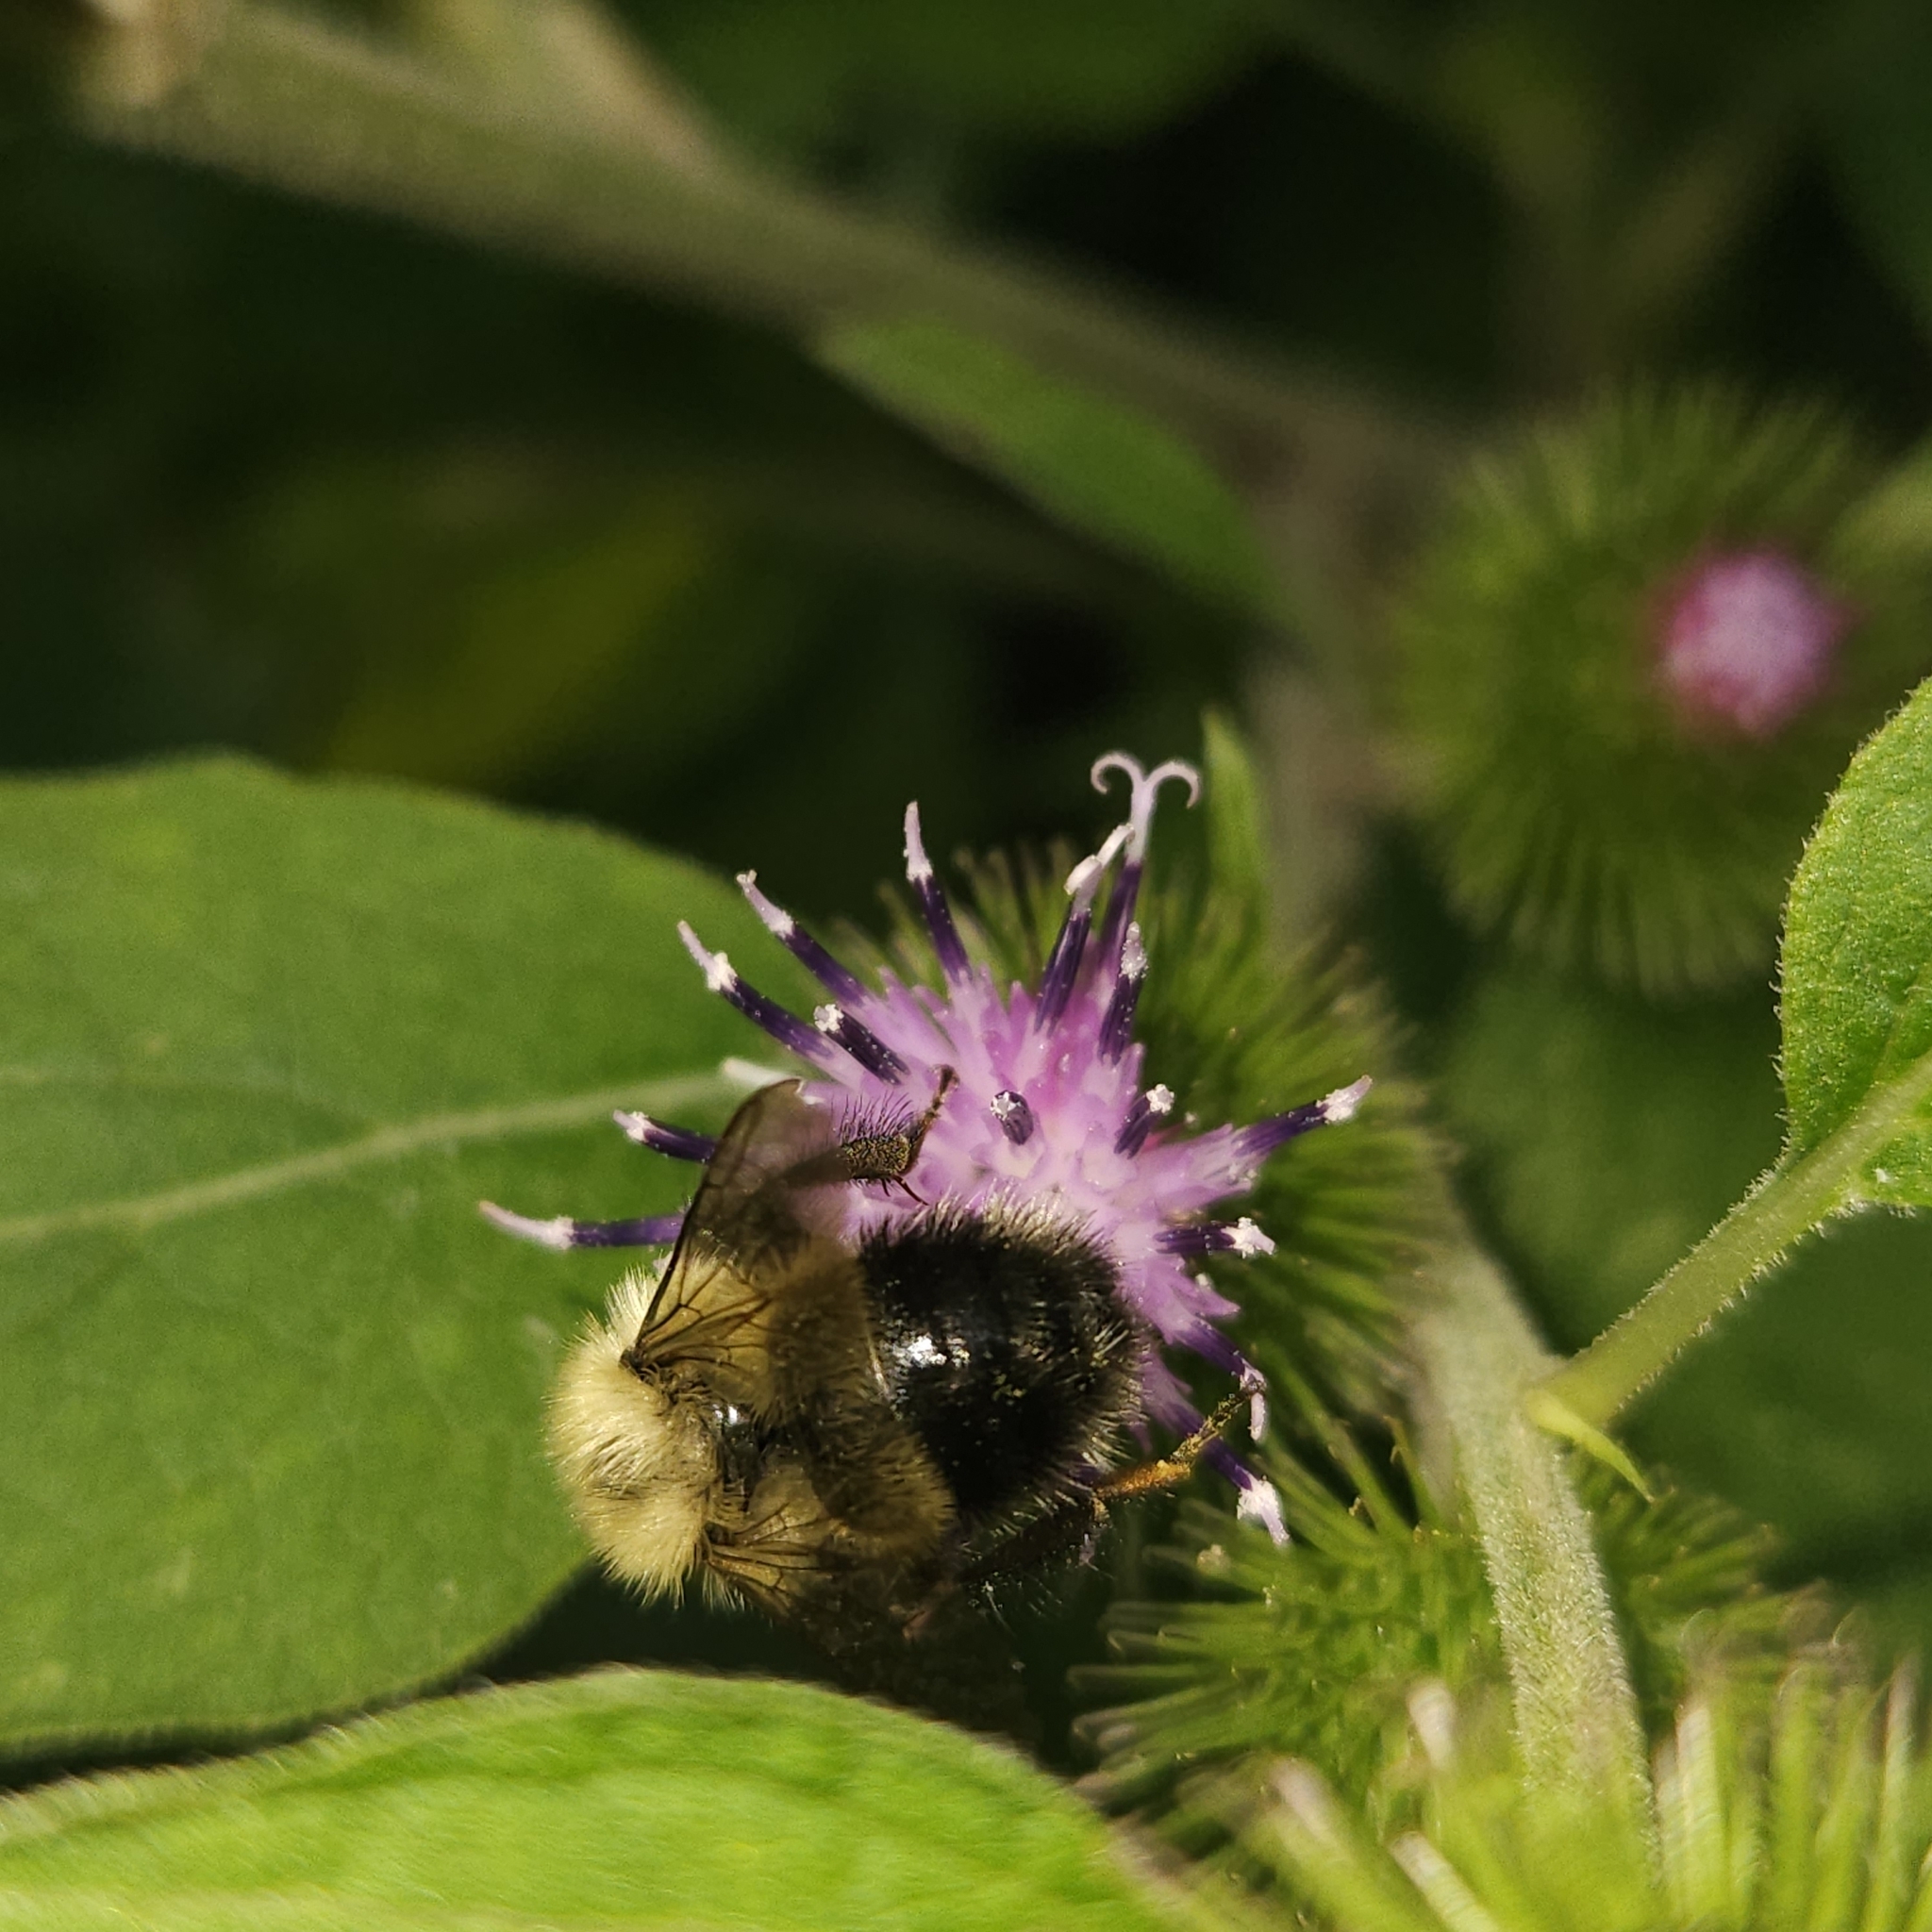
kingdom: Animalia
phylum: Arthropoda
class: Insecta
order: Hymenoptera
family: Apidae
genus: Pyrobombus
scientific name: Pyrobombus
